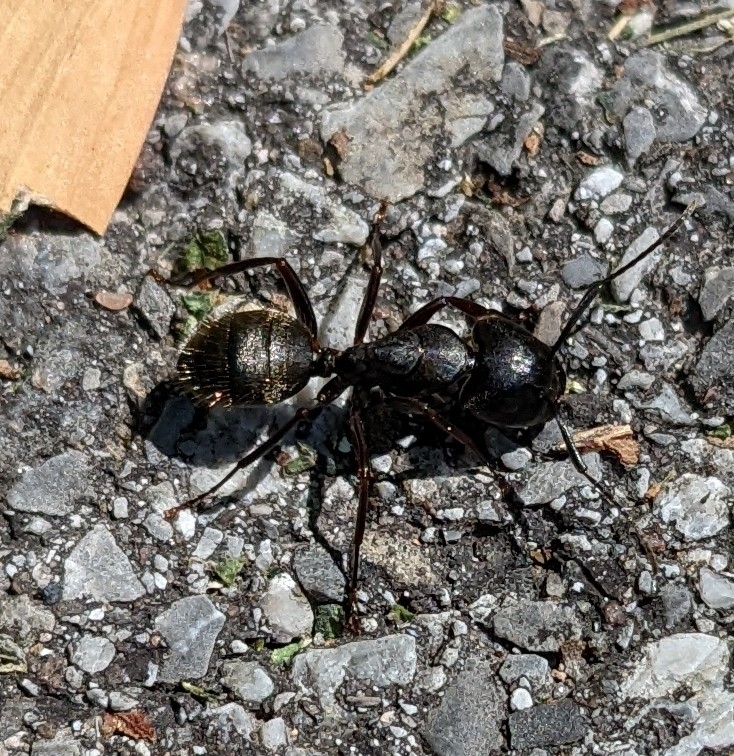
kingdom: Animalia
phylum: Arthropoda
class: Insecta
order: Hymenoptera
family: Formicidae
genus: Camponotus
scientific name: Camponotus pennsylvanicus
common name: Black carpenter ant
